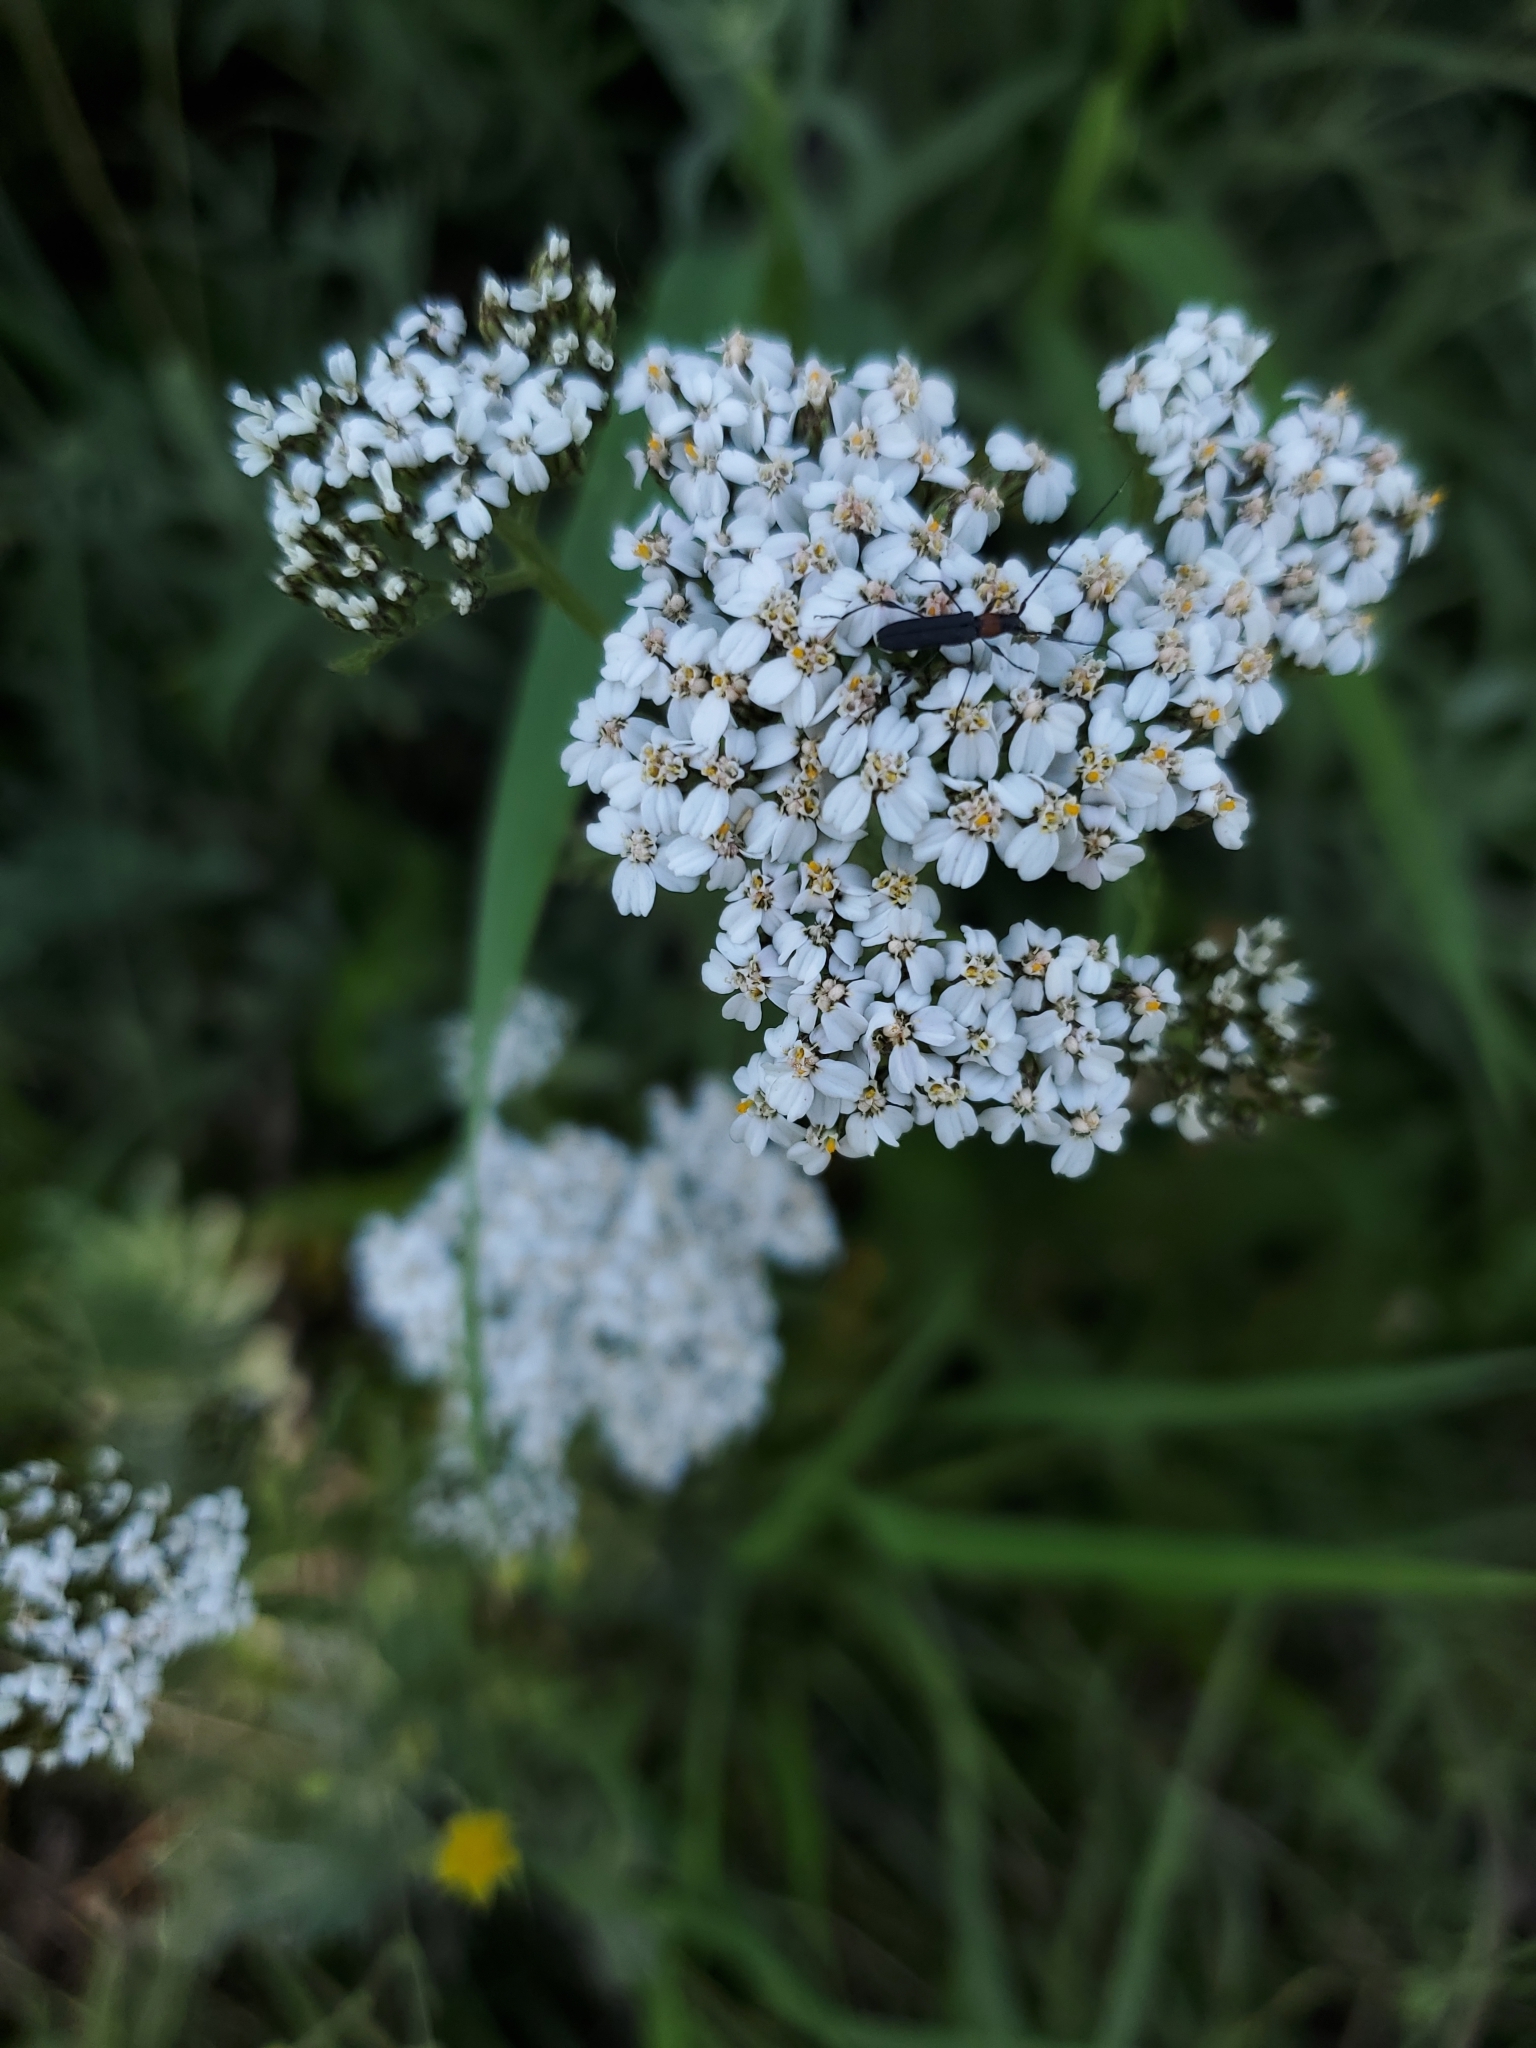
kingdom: Plantae
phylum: Tracheophyta
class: Magnoliopsida
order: Asterales
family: Asteraceae
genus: Achillea
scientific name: Achillea millefolium
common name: Yarrow
